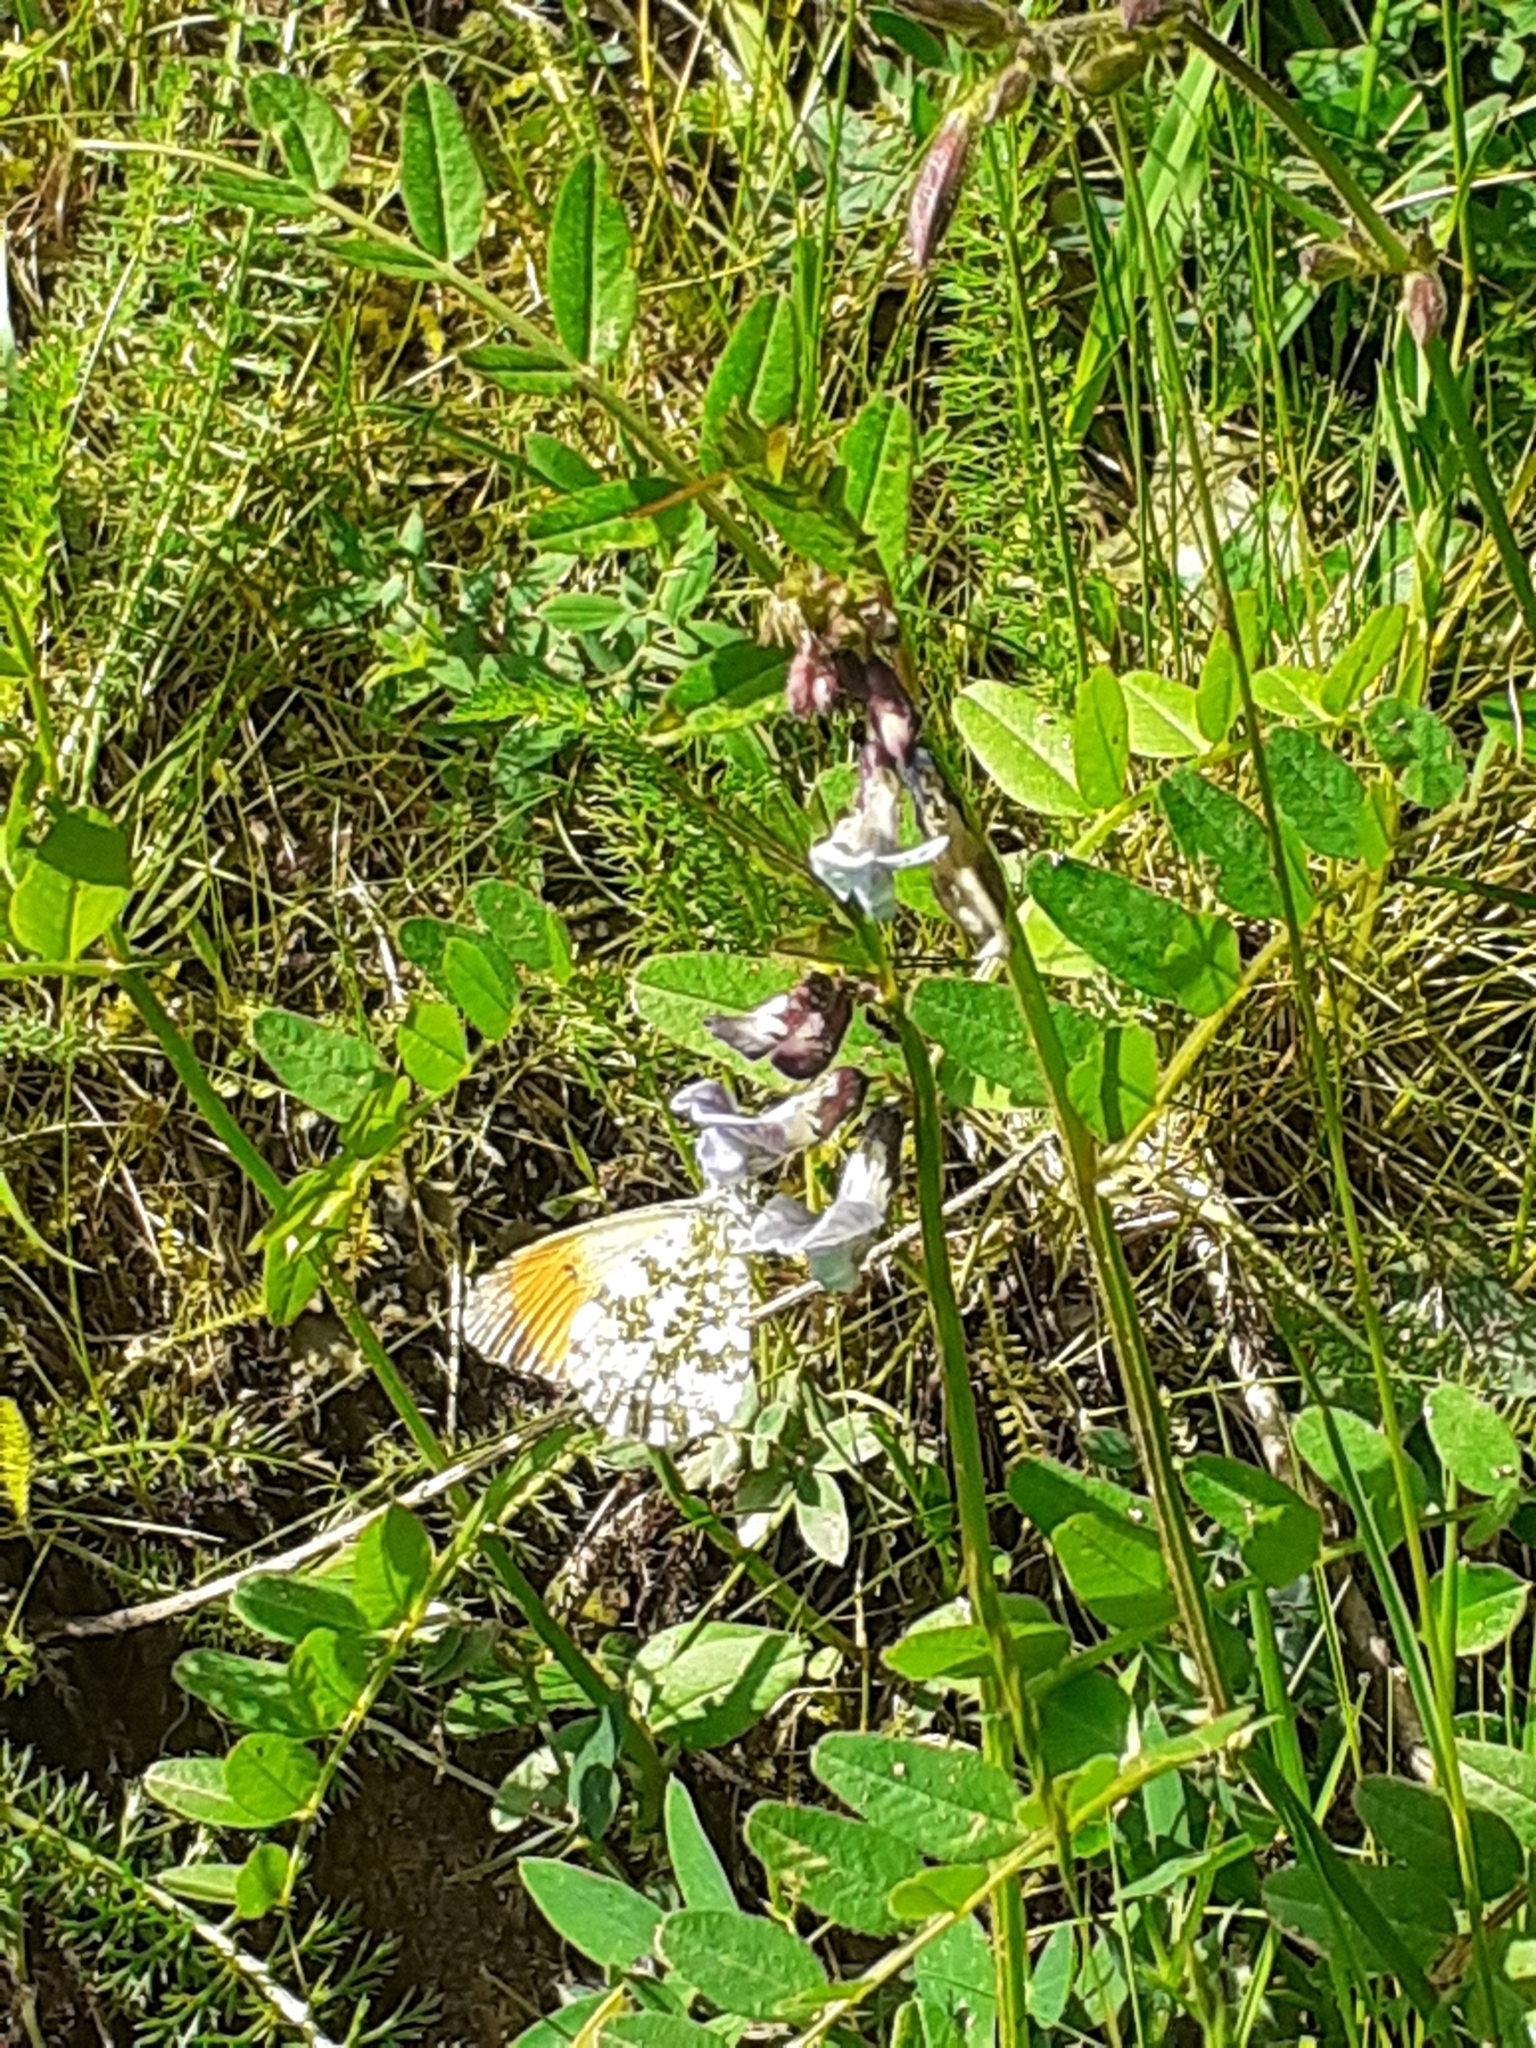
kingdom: Animalia
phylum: Arthropoda
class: Insecta
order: Lepidoptera
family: Pieridae
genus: Anthocharis
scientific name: Anthocharis cardamines
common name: Orange-tip
